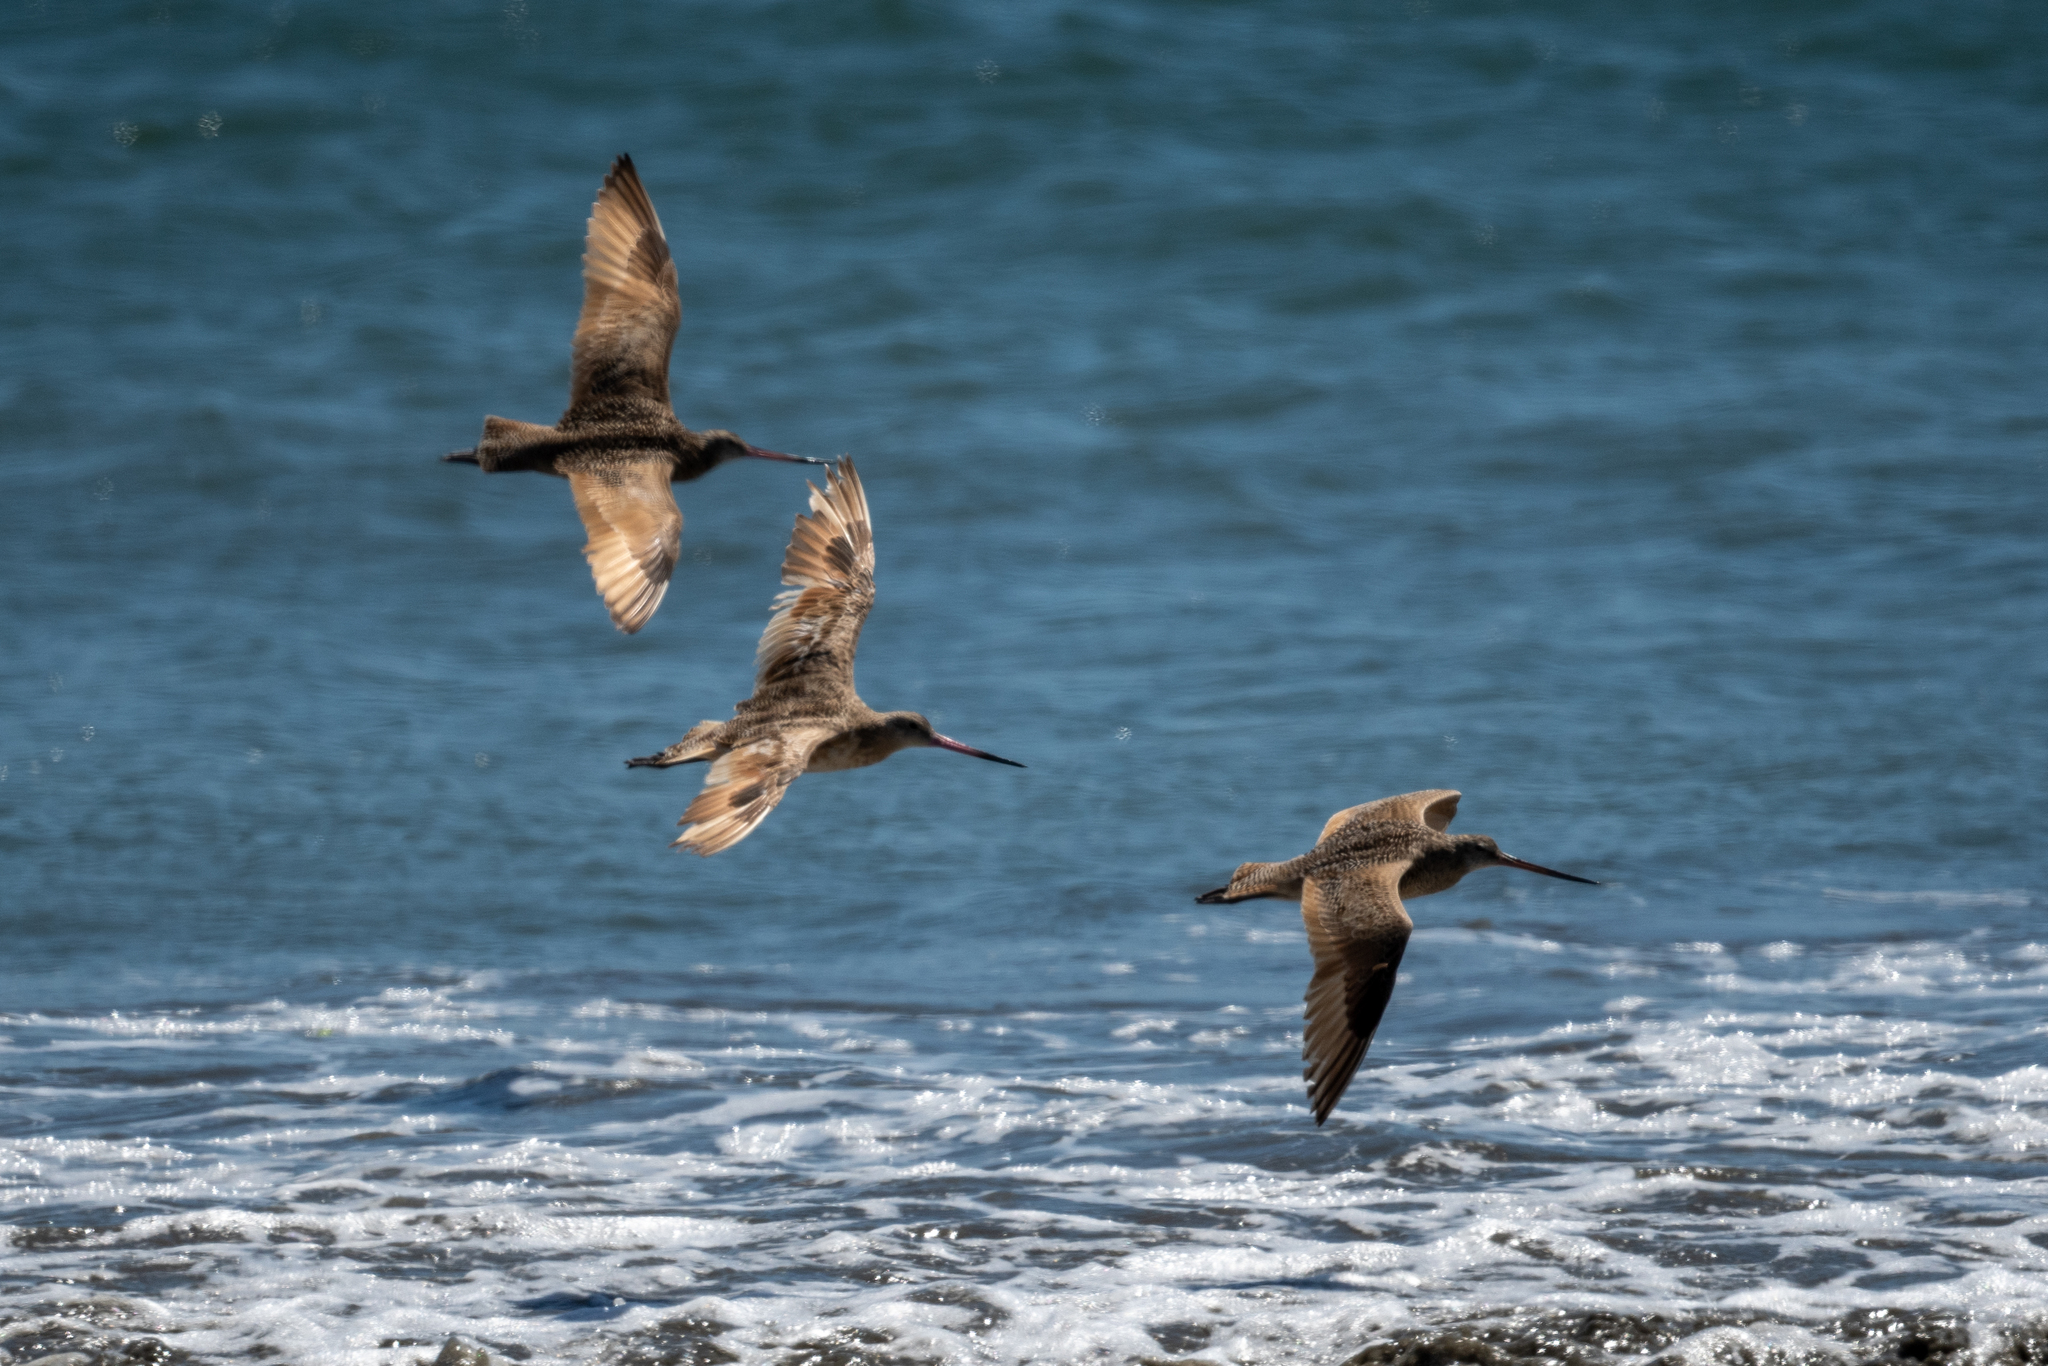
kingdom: Animalia
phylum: Chordata
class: Aves
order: Charadriiformes
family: Scolopacidae
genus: Limosa
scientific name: Limosa fedoa
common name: Marbled godwit
